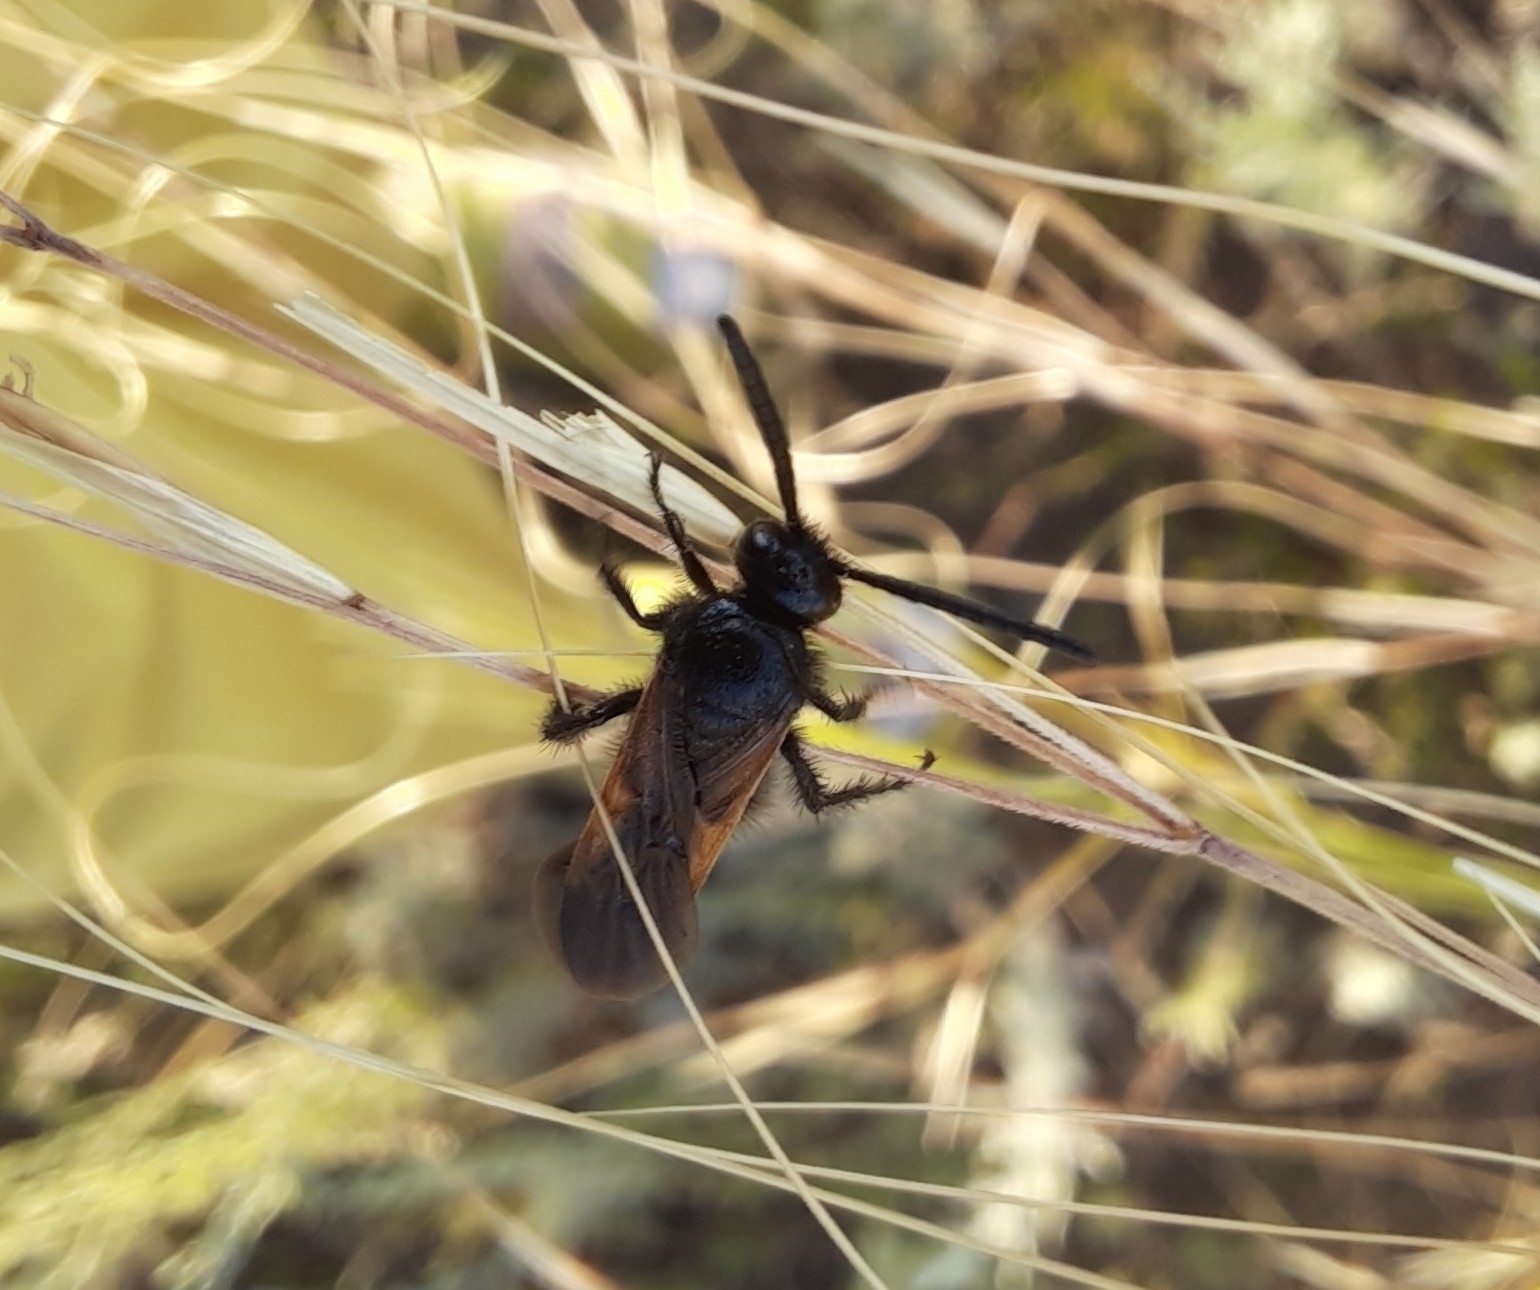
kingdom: Animalia
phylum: Arthropoda
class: Insecta
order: Hymenoptera
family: Vespidae
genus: Vespa
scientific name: Vespa sexmaculata
